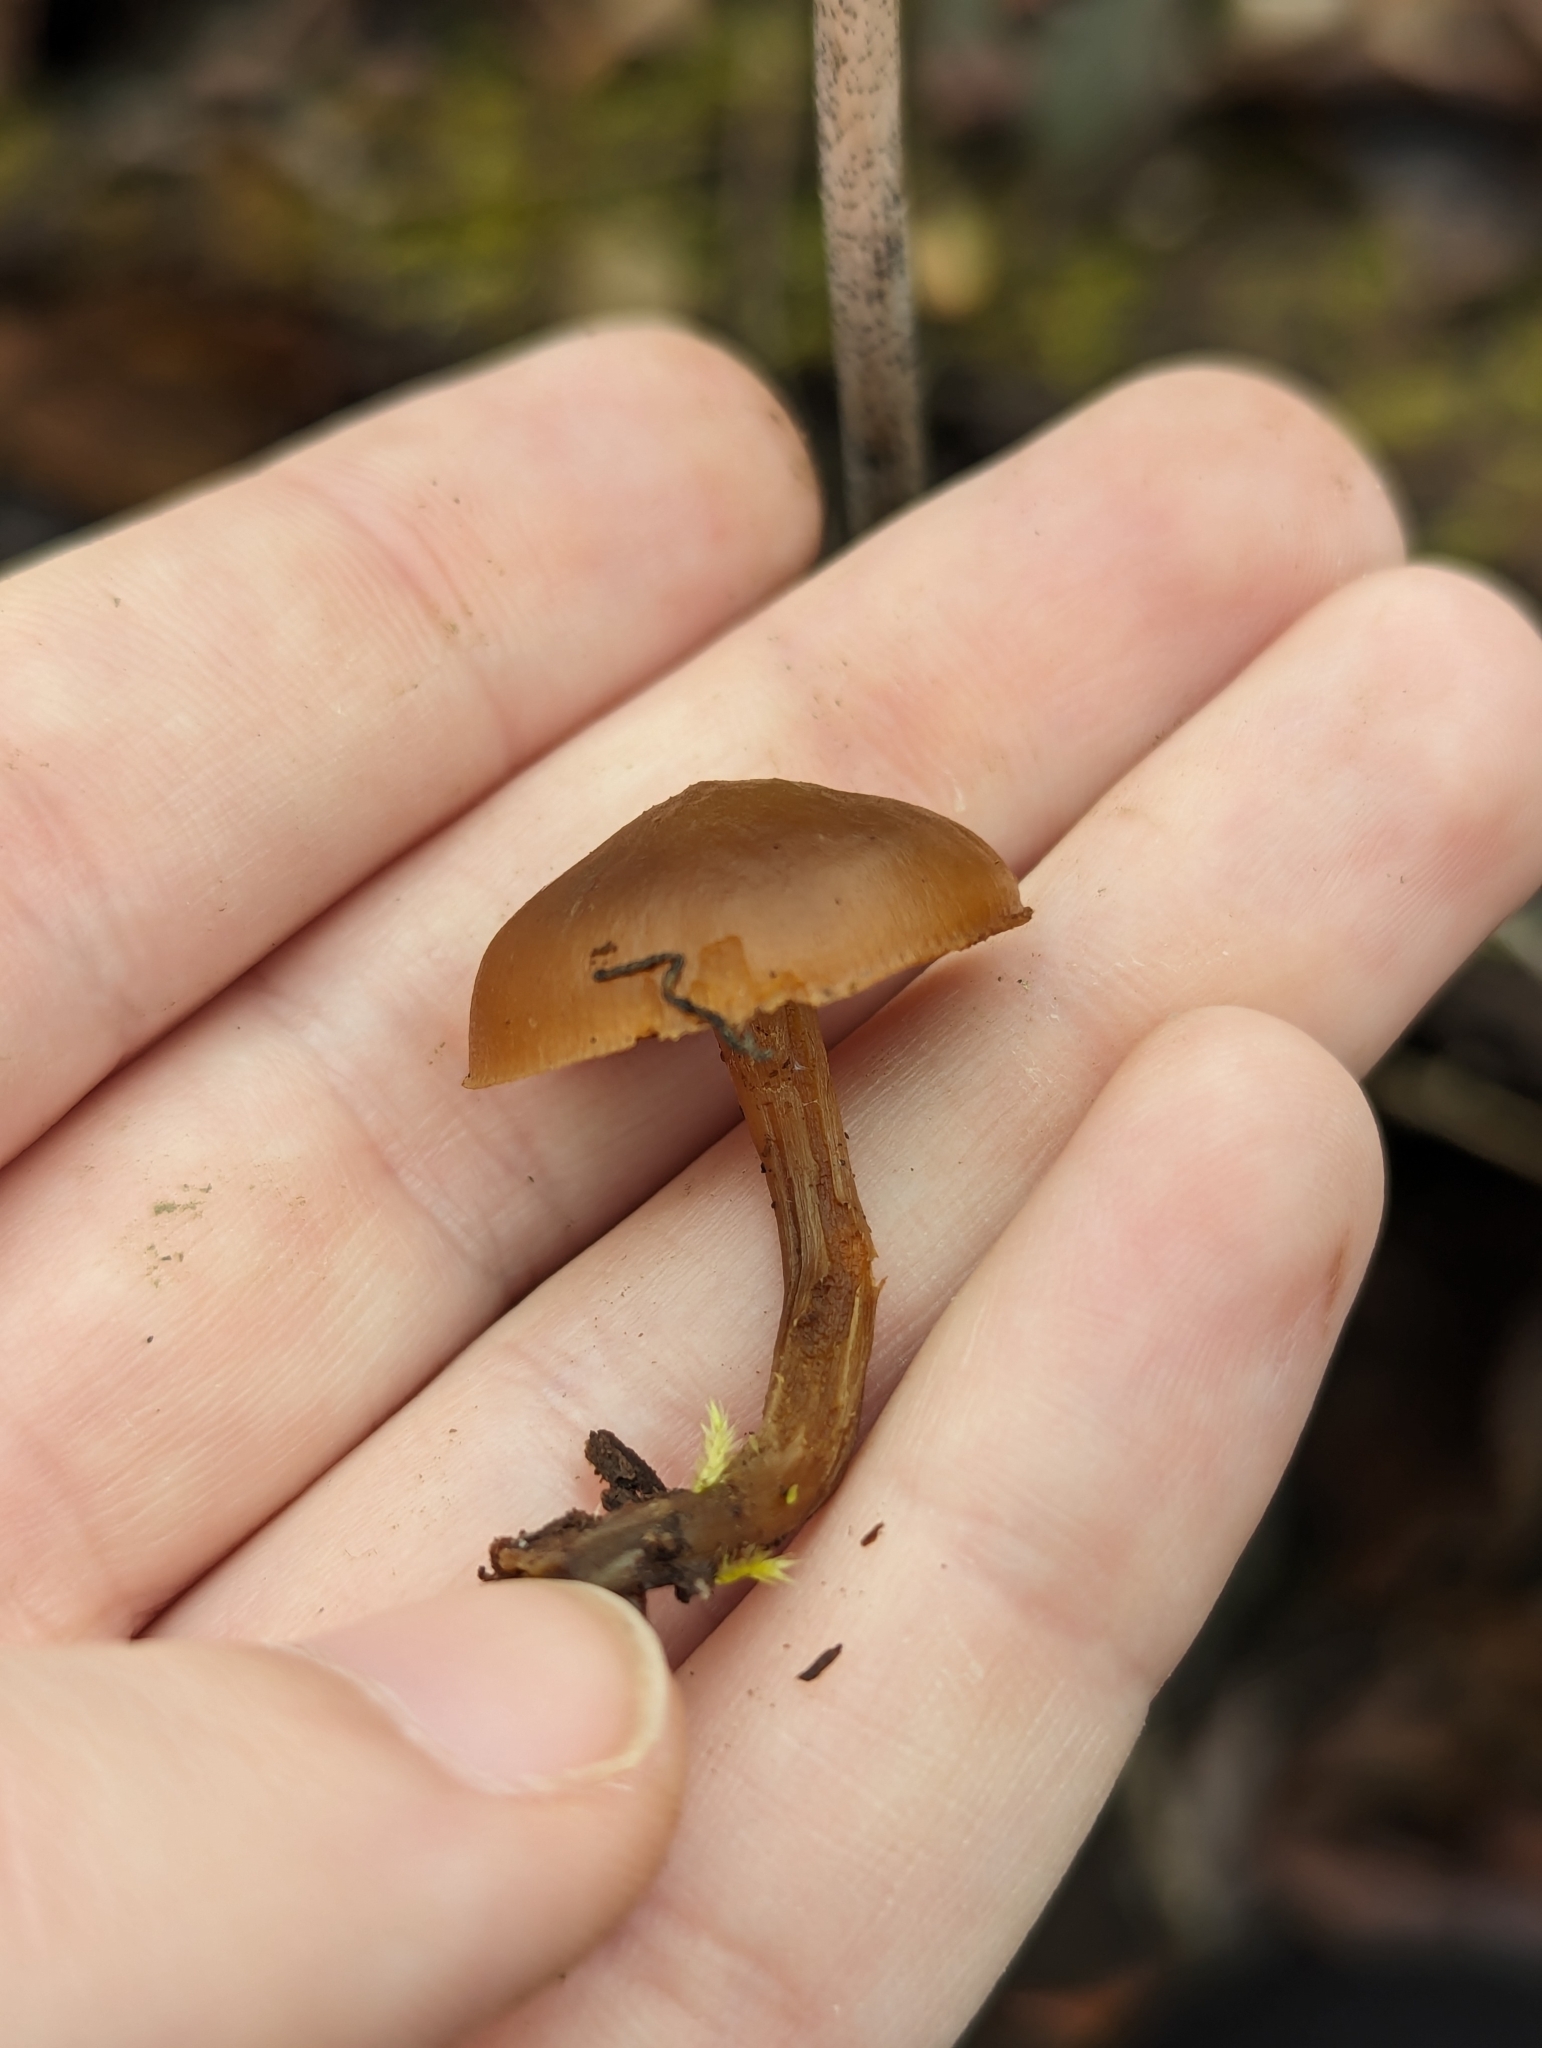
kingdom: Fungi
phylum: Basidiomycota
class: Agaricomycetes
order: Agaricales
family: Hymenogastraceae
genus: Galerina
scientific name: Galerina marginata
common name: Funeral bell
